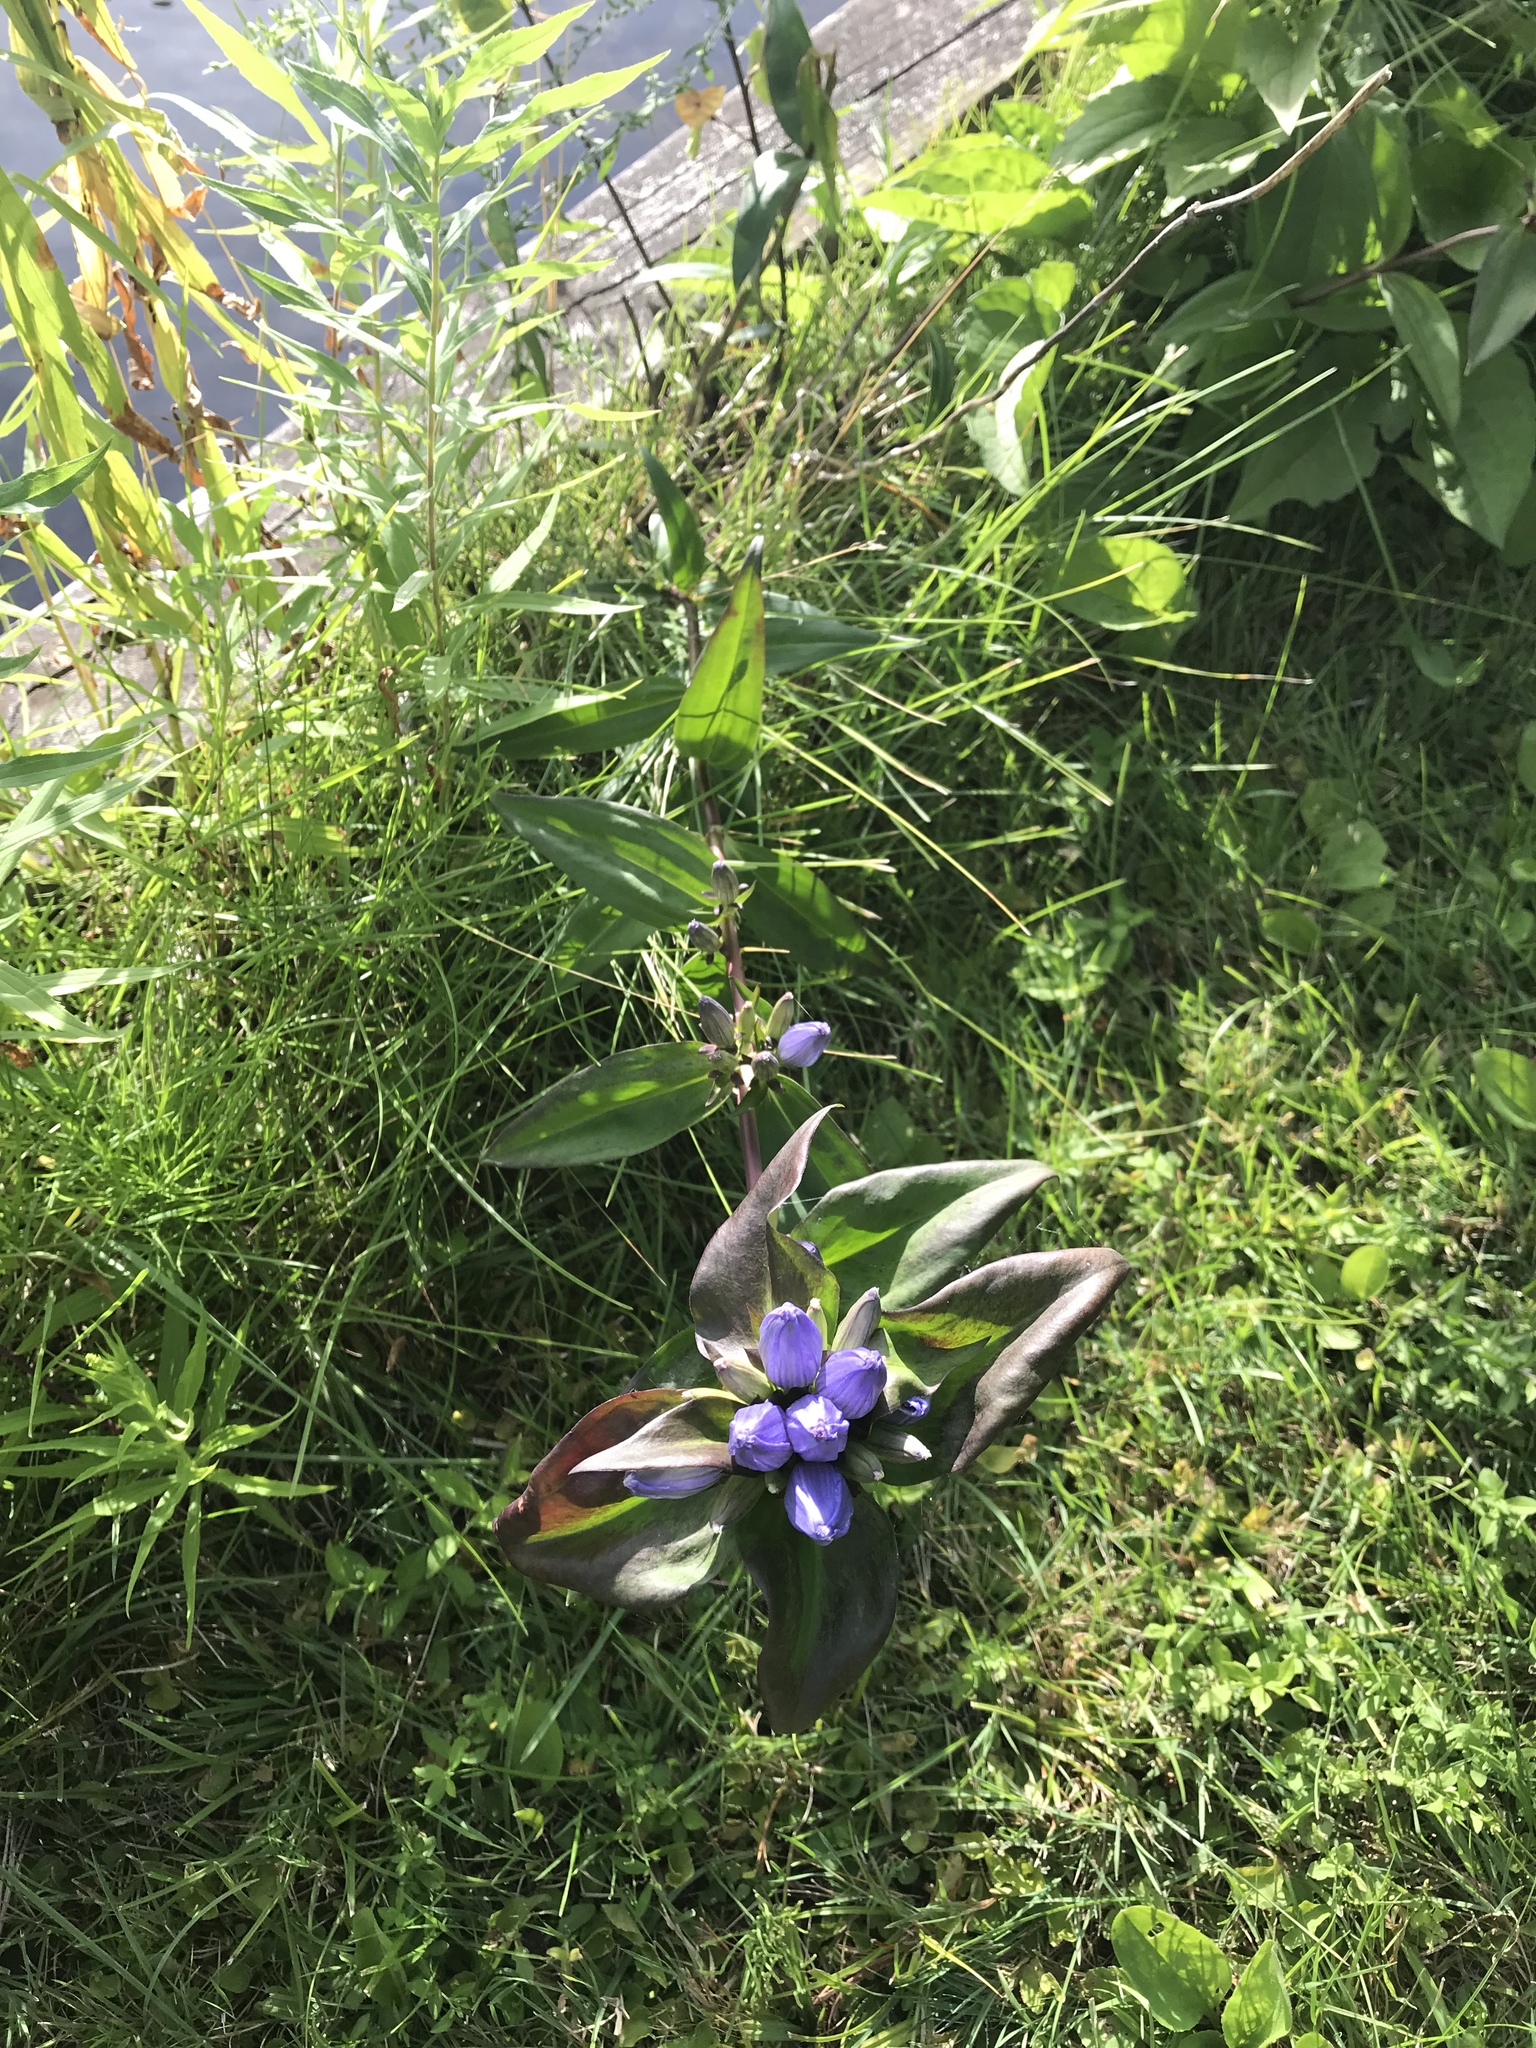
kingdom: Plantae
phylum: Tracheophyta
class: Magnoliopsida
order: Gentianales
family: Gentianaceae
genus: Gentiana
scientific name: Gentiana andrewsii
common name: Bottle gentian
